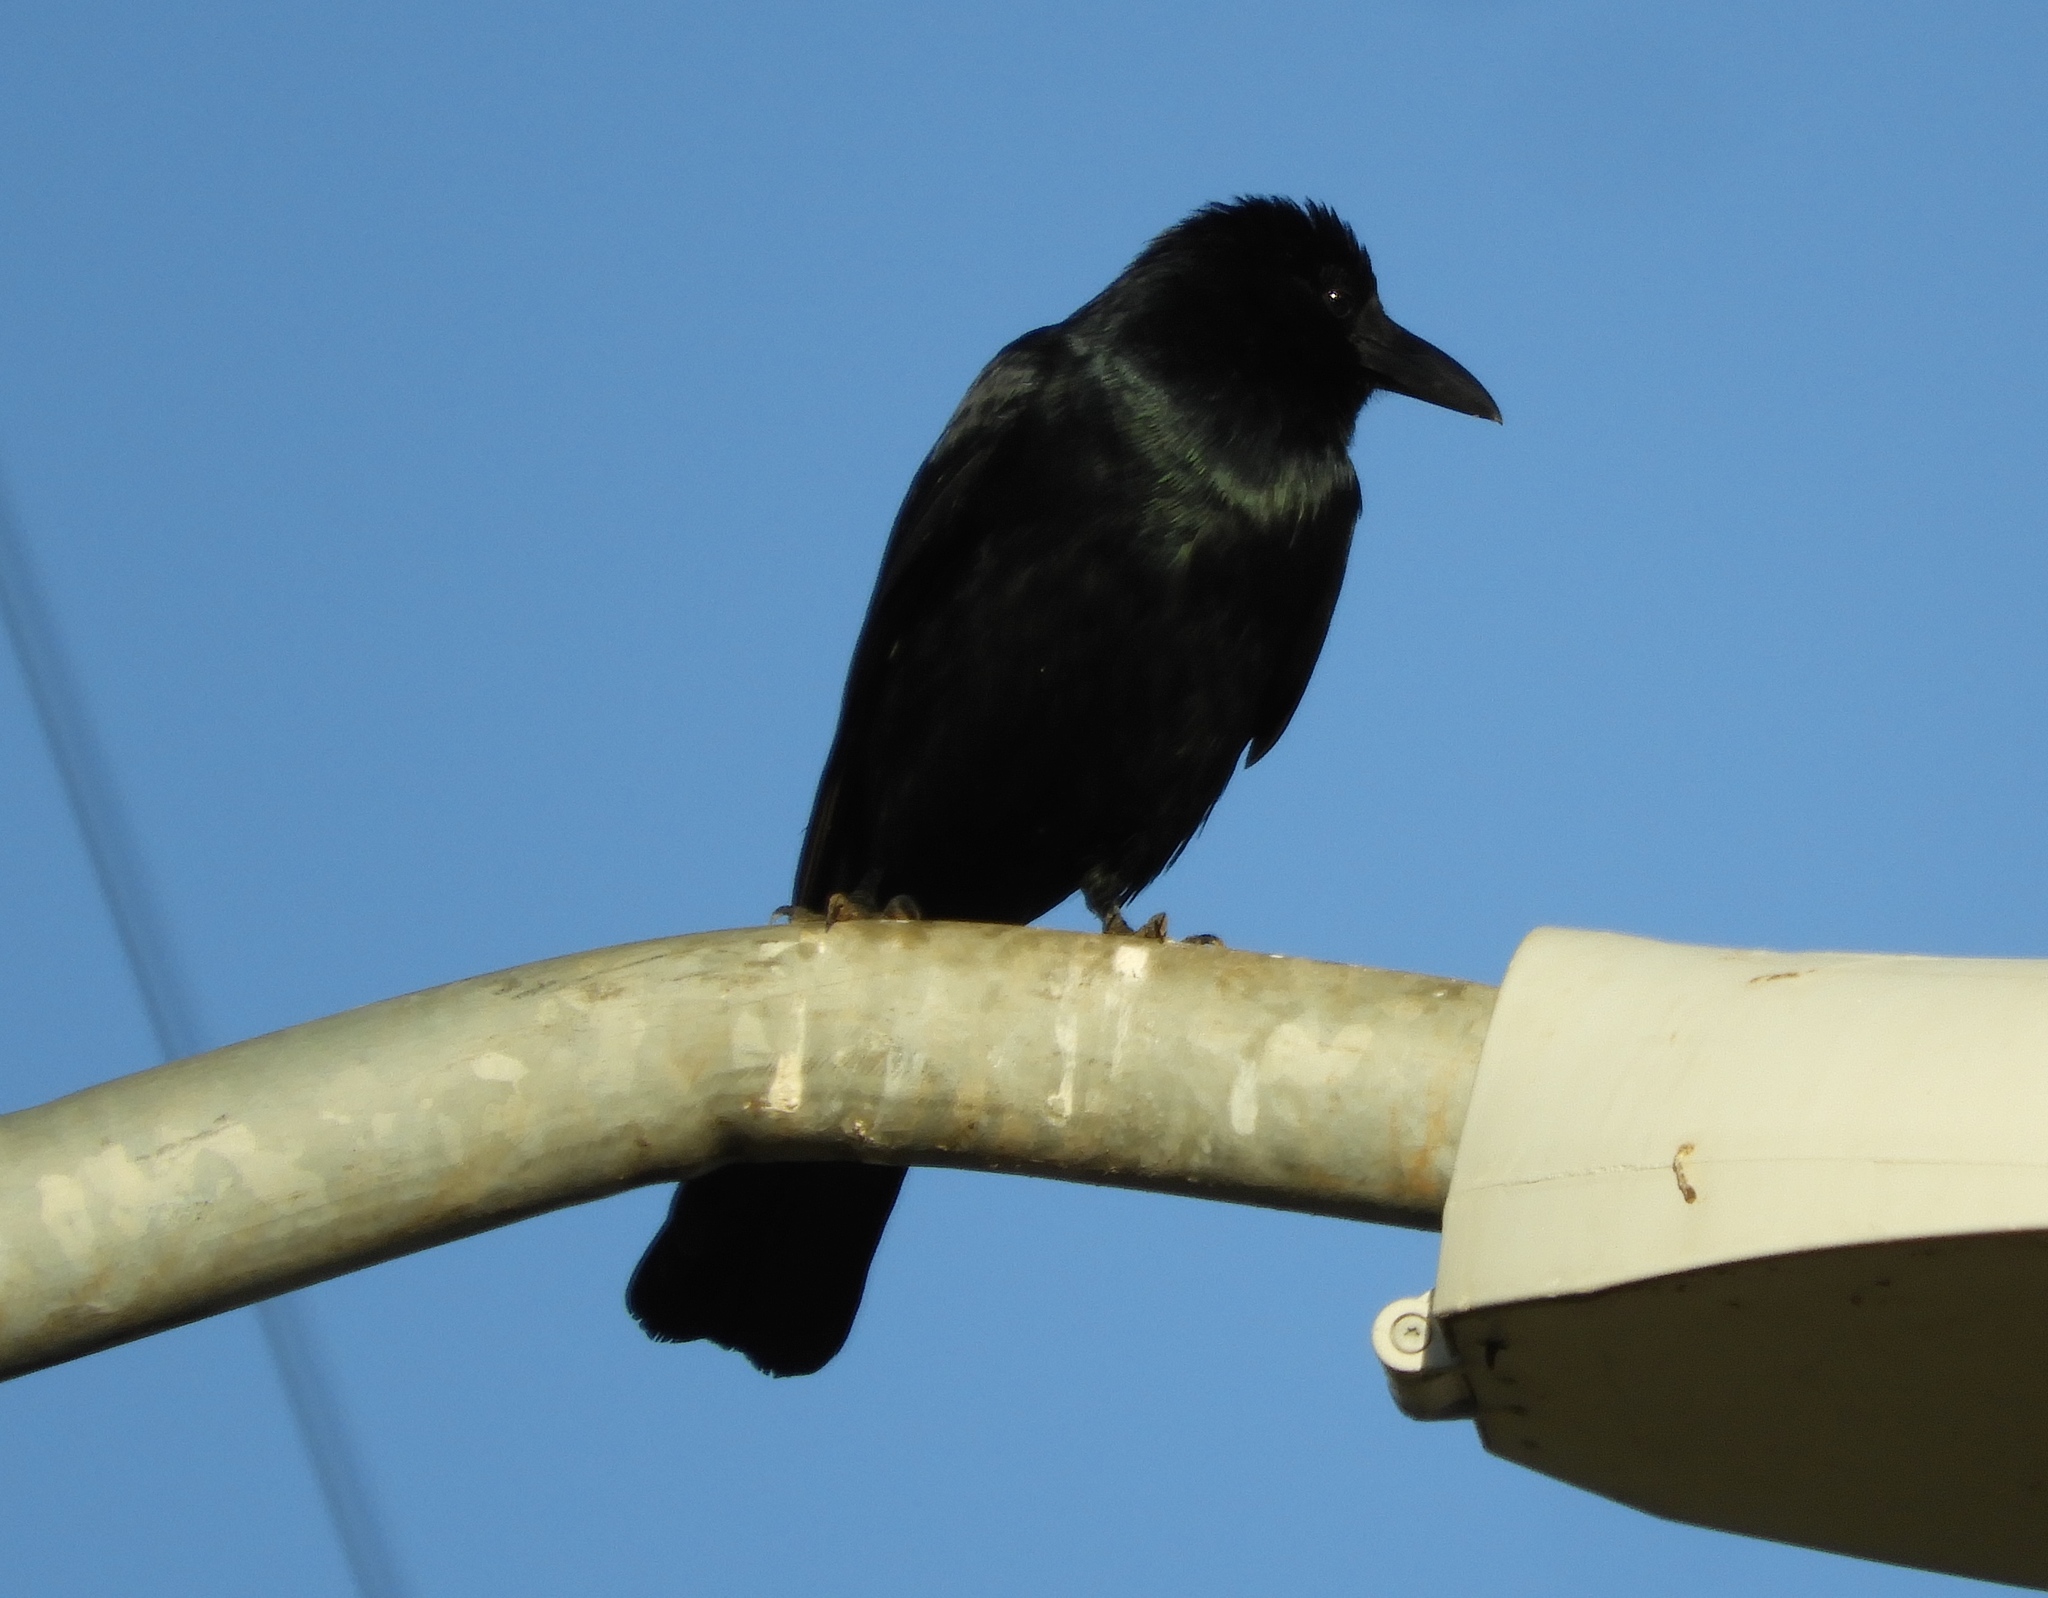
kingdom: Animalia
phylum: Chordata
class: Aves
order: Passeriformes
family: Corvidae
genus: Corvus
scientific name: Corvus sinaloae
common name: Sinaloa crow
